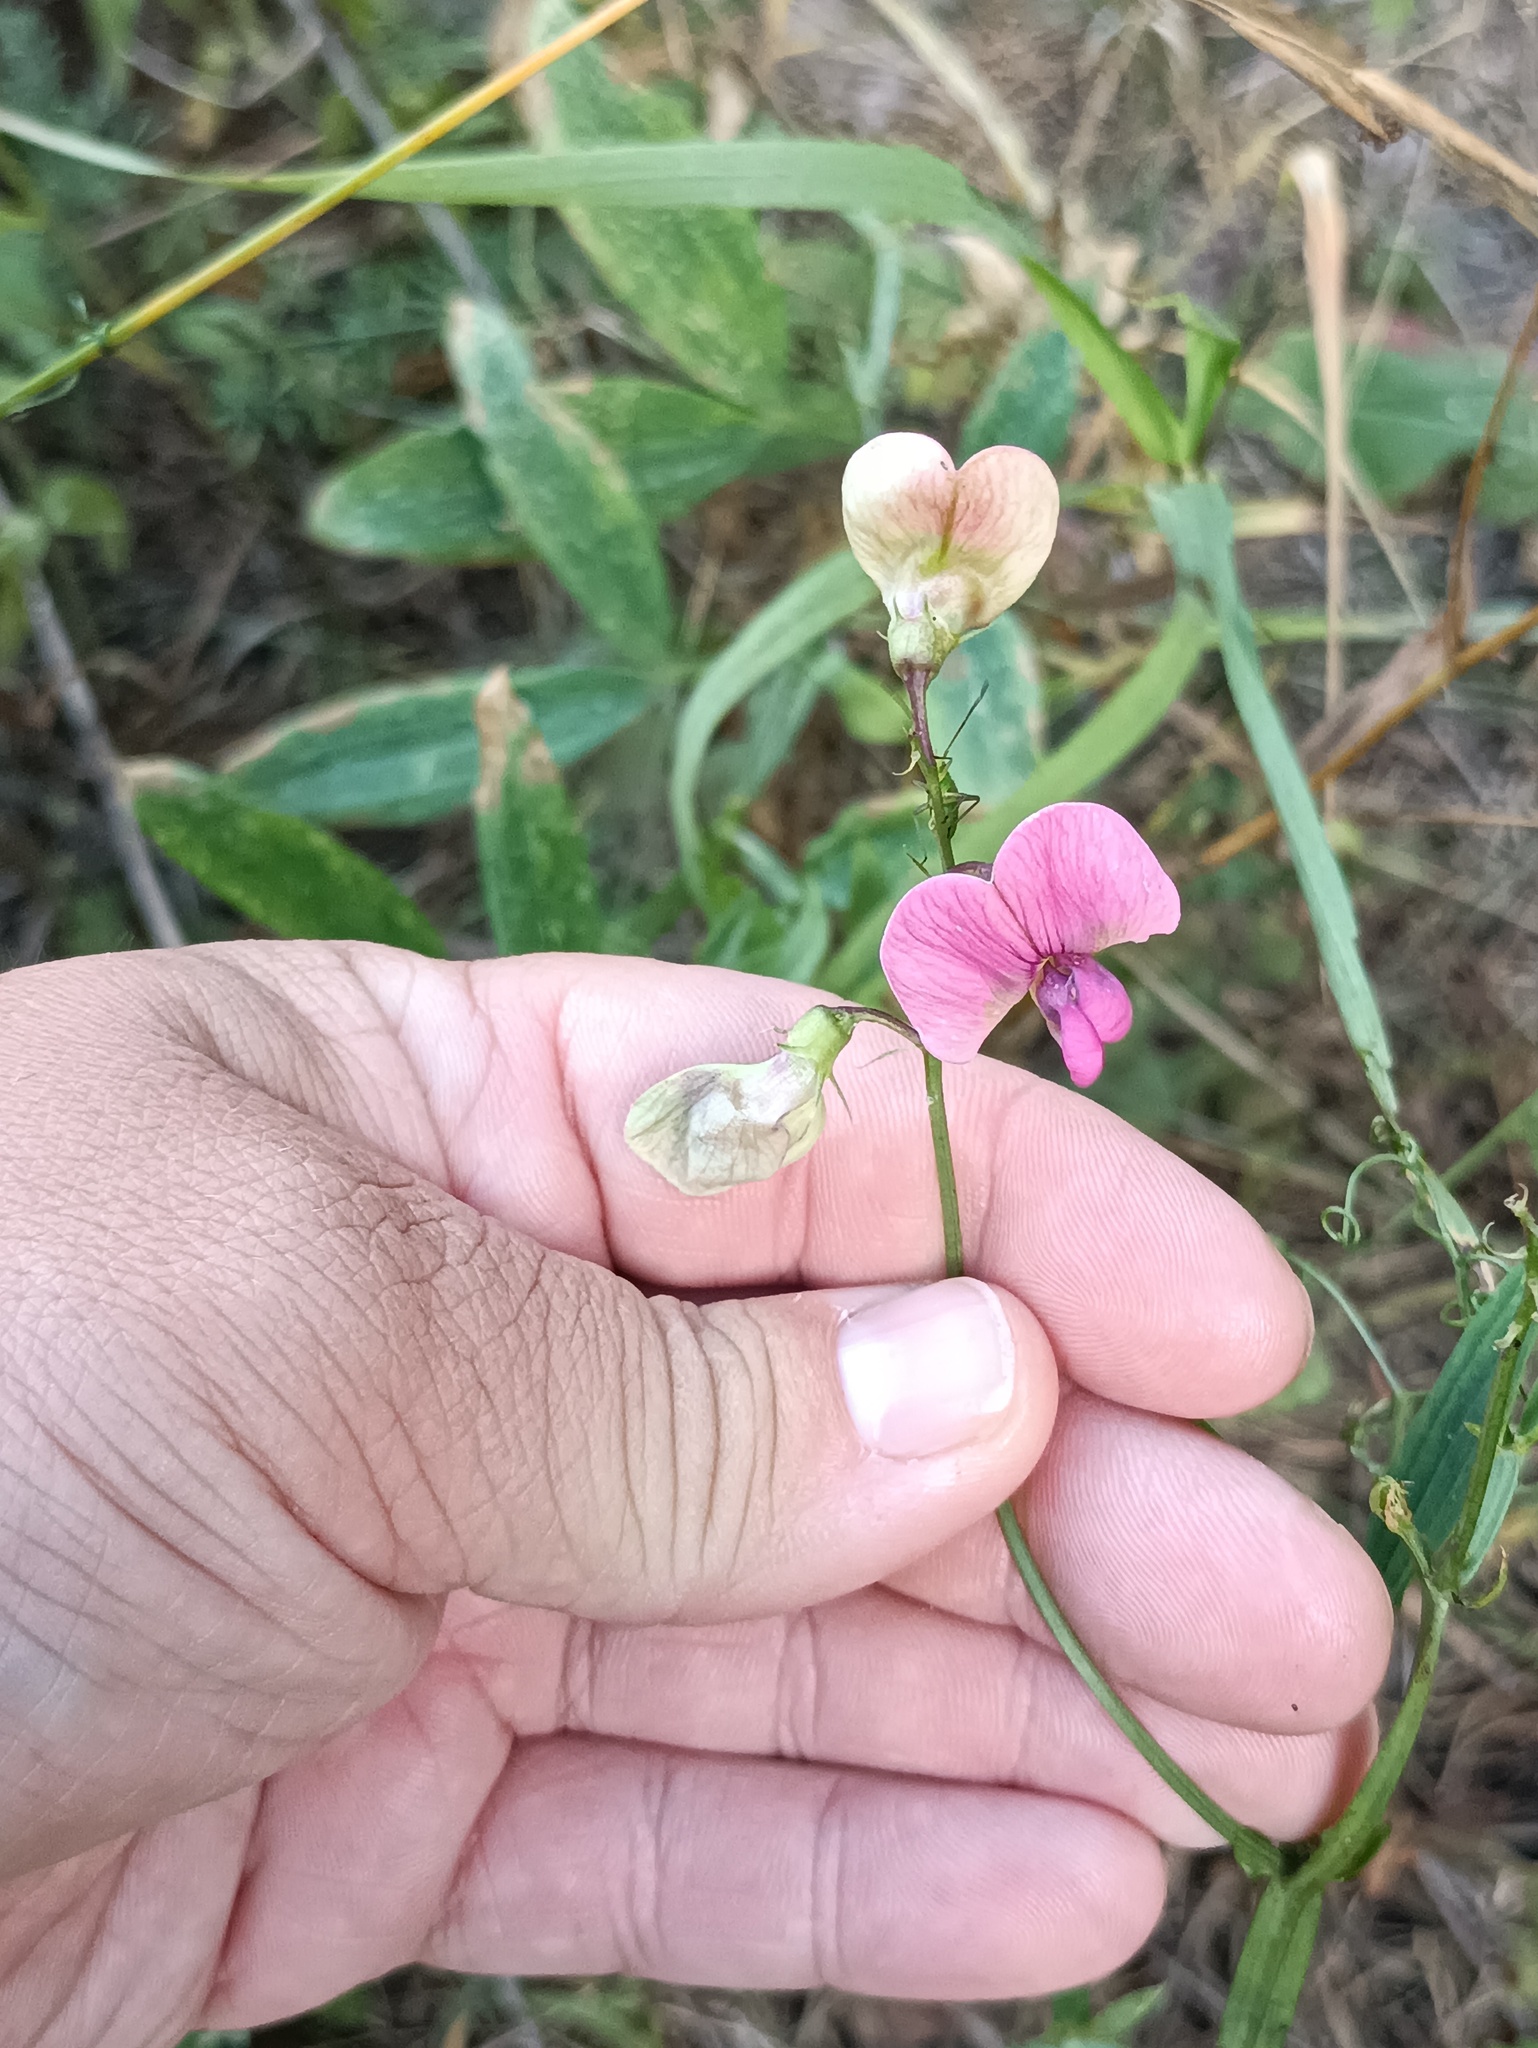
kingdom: Plantae
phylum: Tracheophyta
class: Magnoliopsida
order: Fabales
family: Fabaceae
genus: Lathyrus
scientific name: Lathyrus sylvestris
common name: Flat pea
